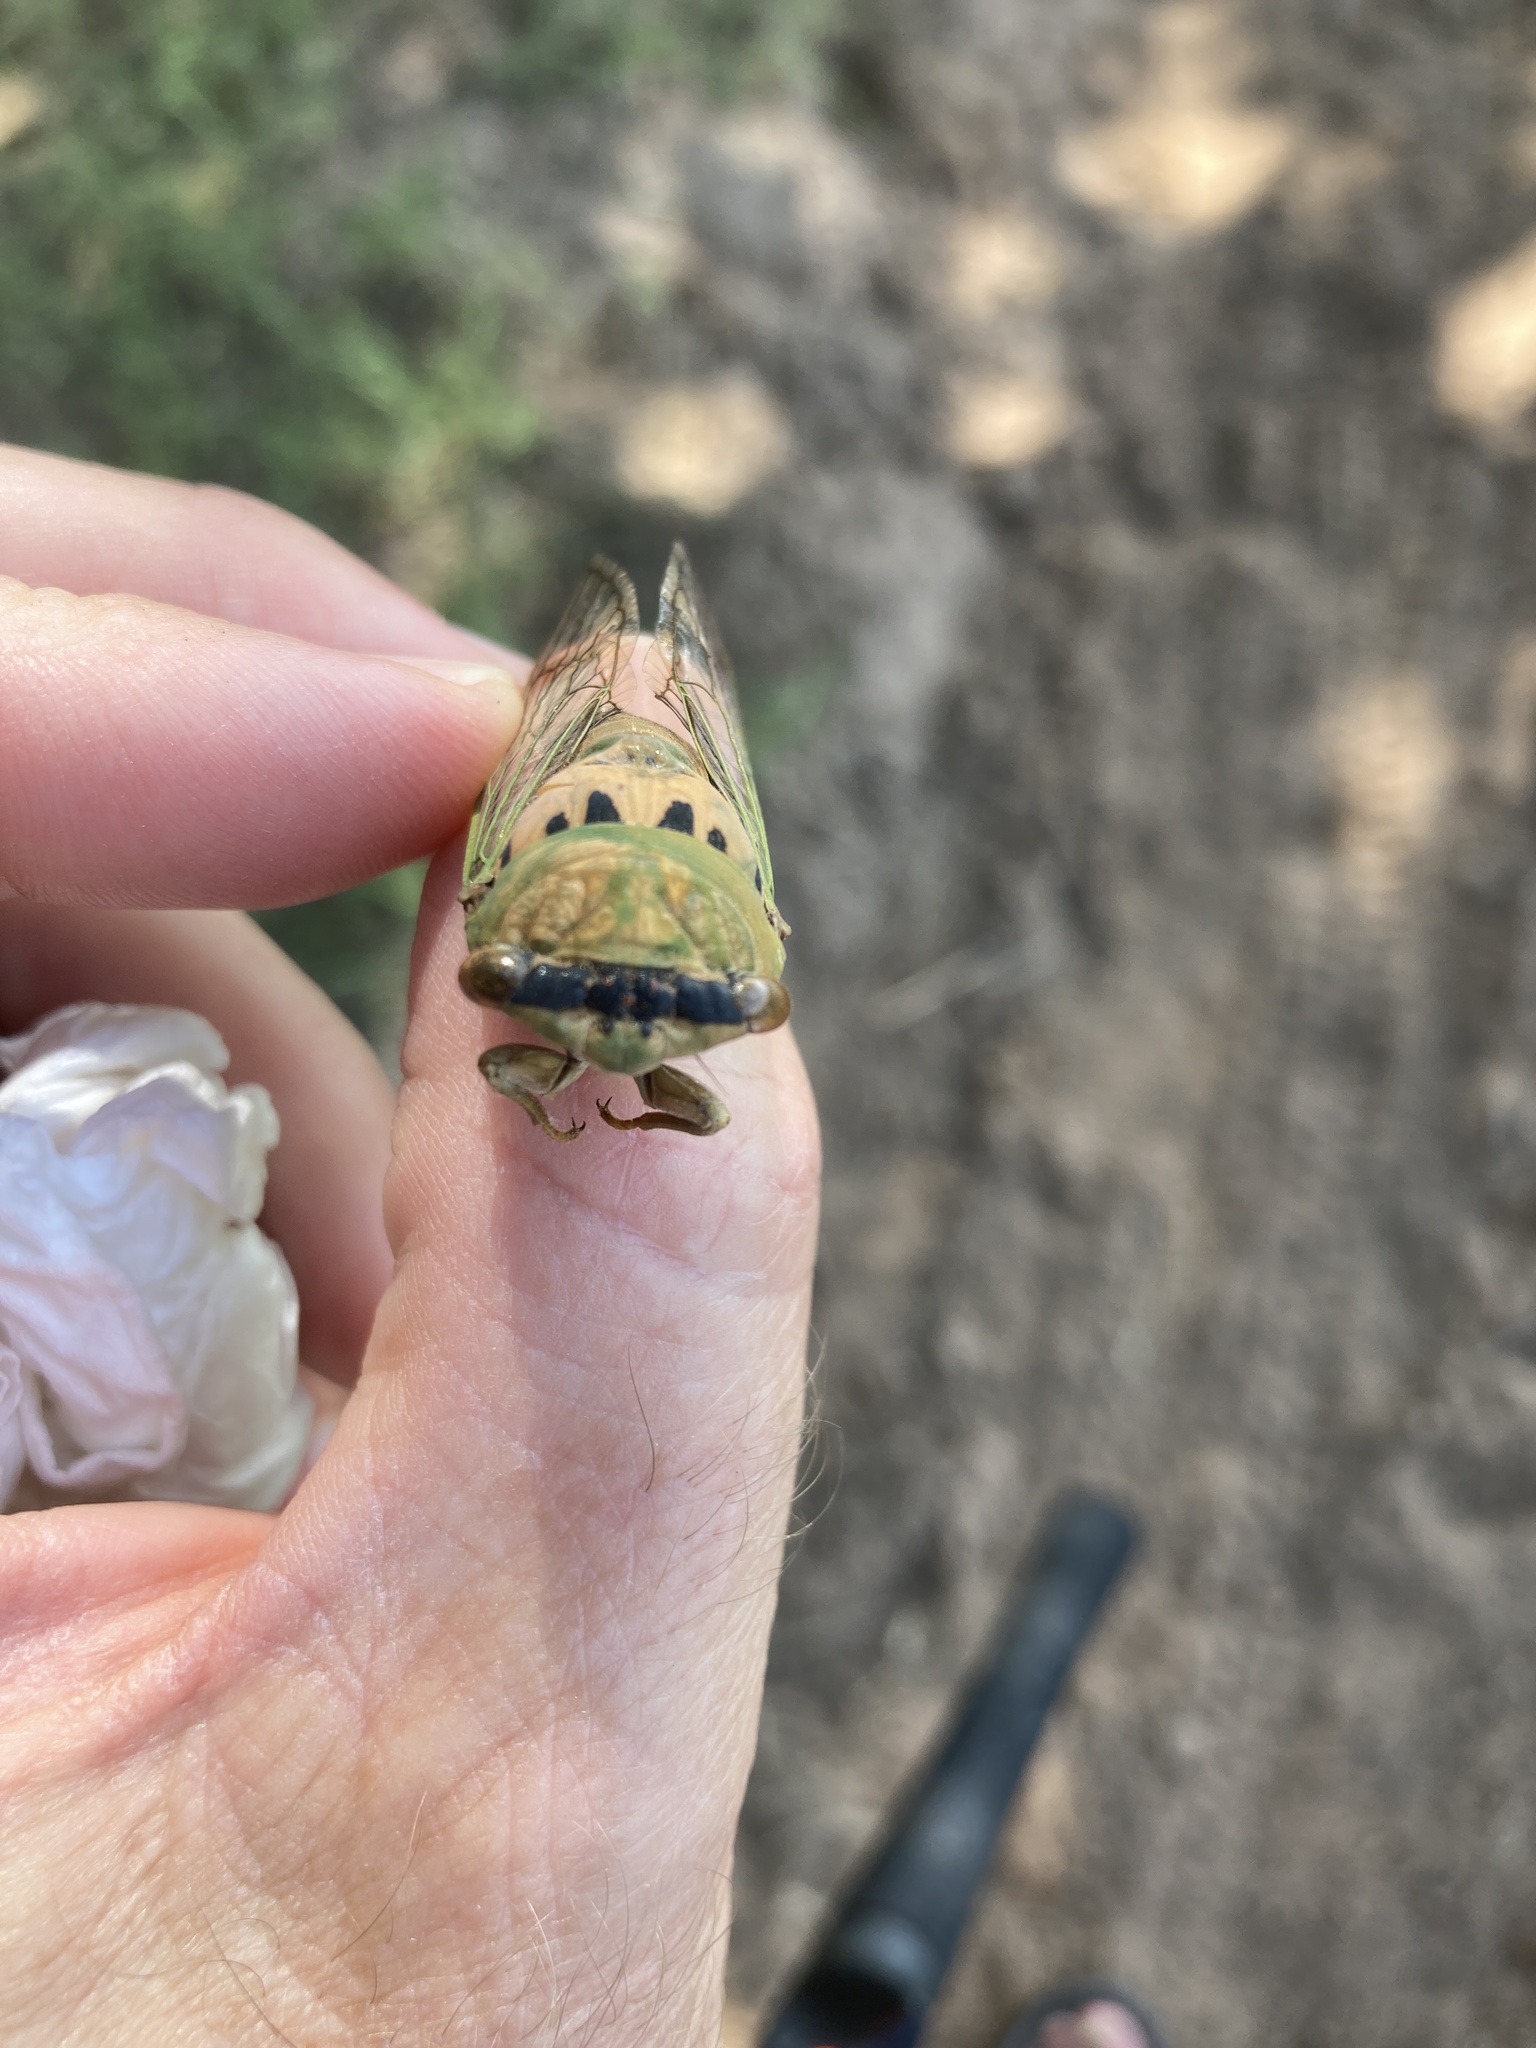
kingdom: Animalia
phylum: Arthropoda
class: Insecta
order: Hemiptera
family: Cicadidae
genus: Neotibicen
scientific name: Neotibicen superbus
